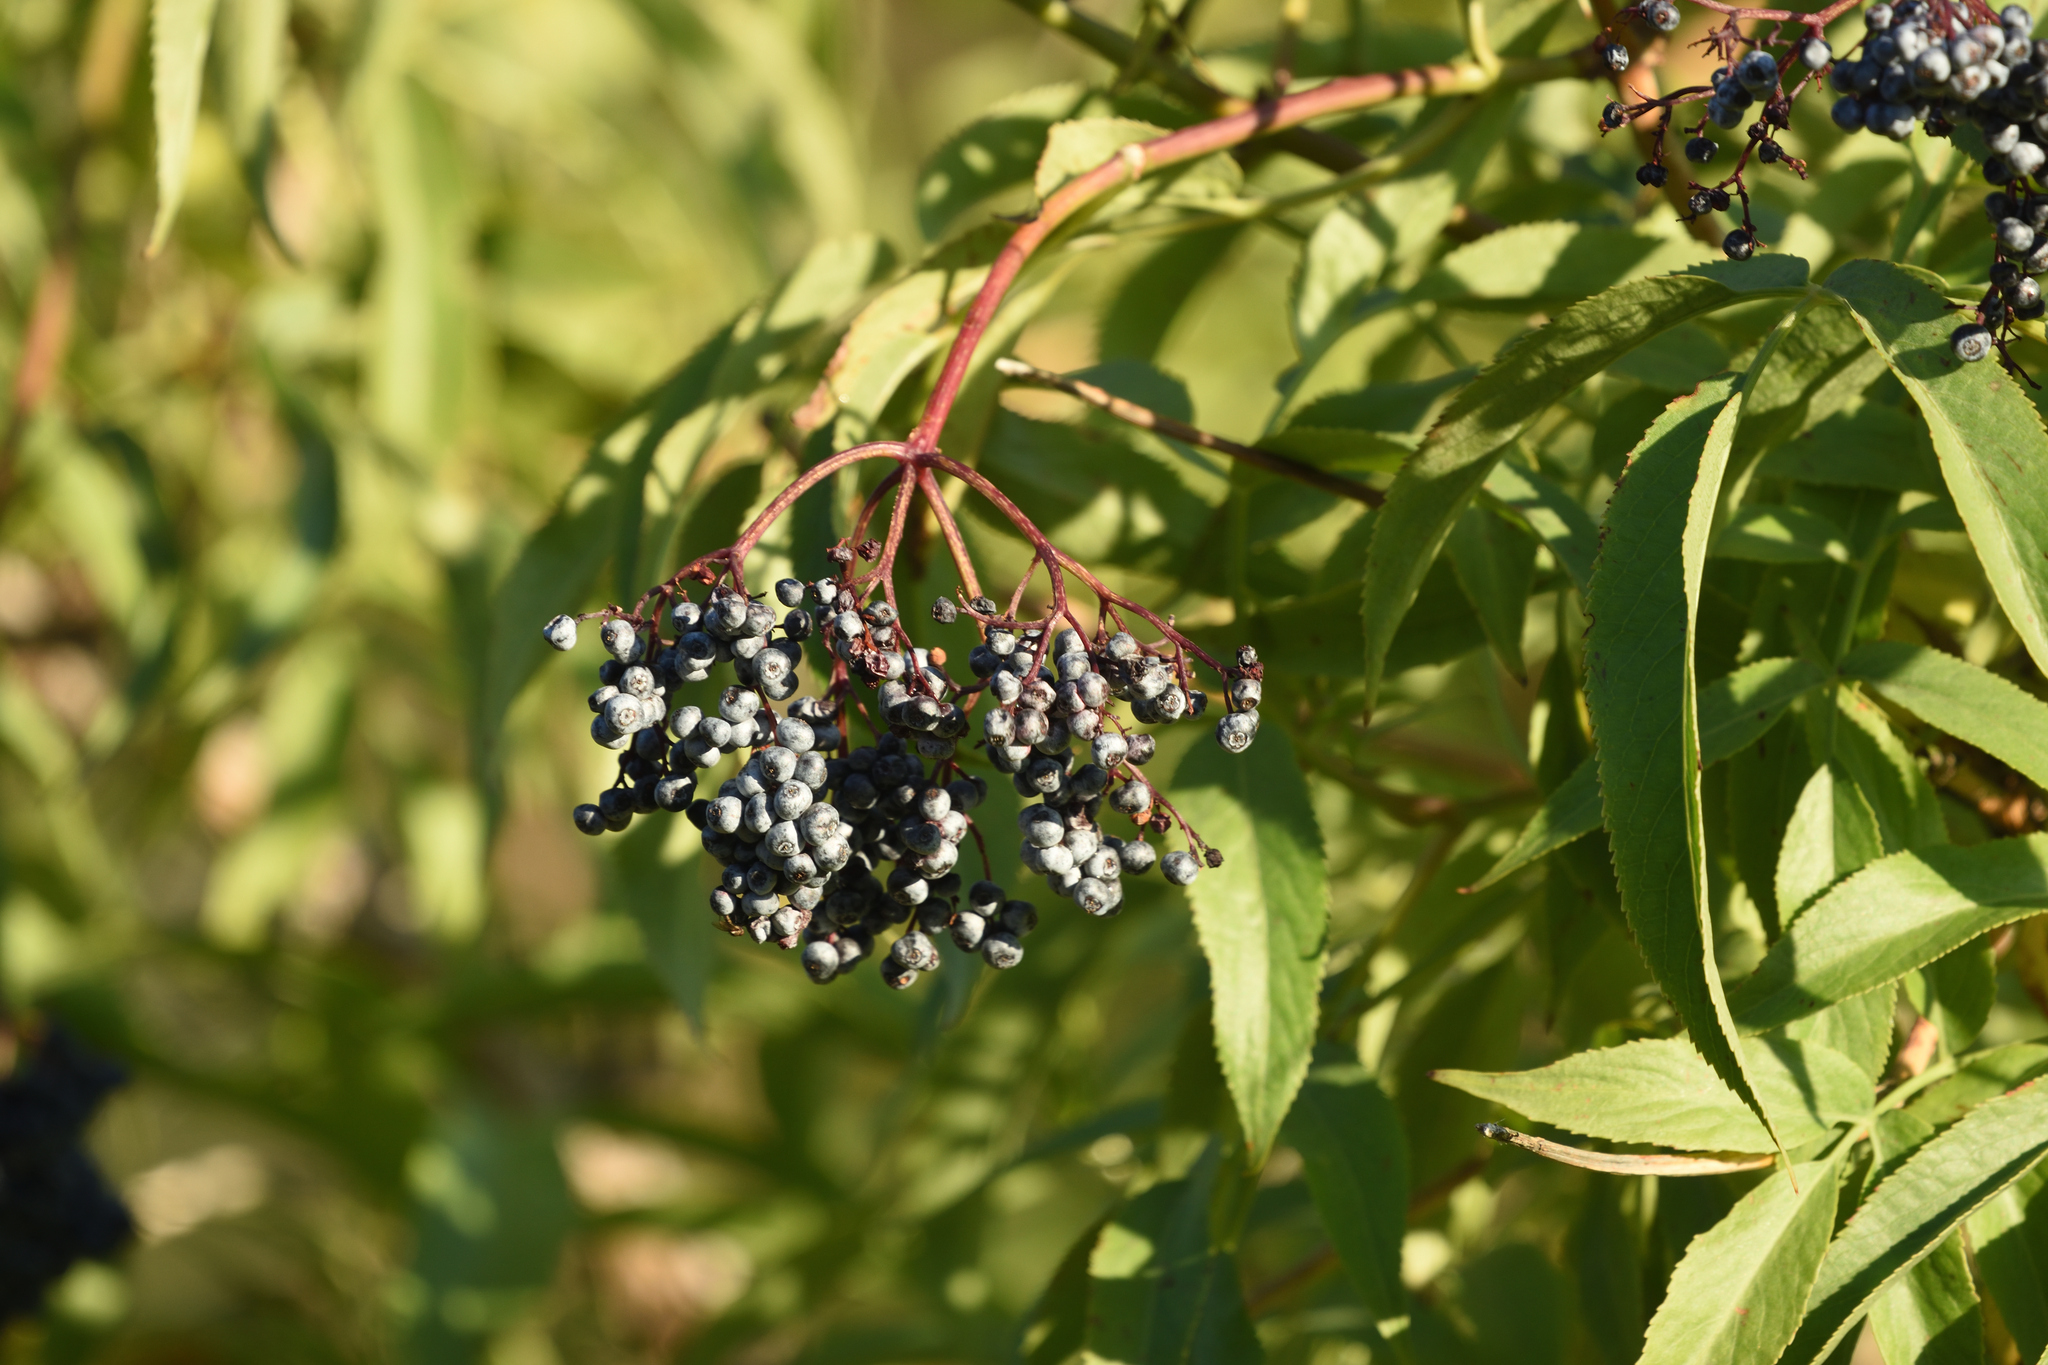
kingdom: Plantae
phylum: Tracheophyta
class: Magnoliopsida
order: Dipsacales
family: Viburnaceae
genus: Sambucus
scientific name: Sambucus cerulea
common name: Blue elder
